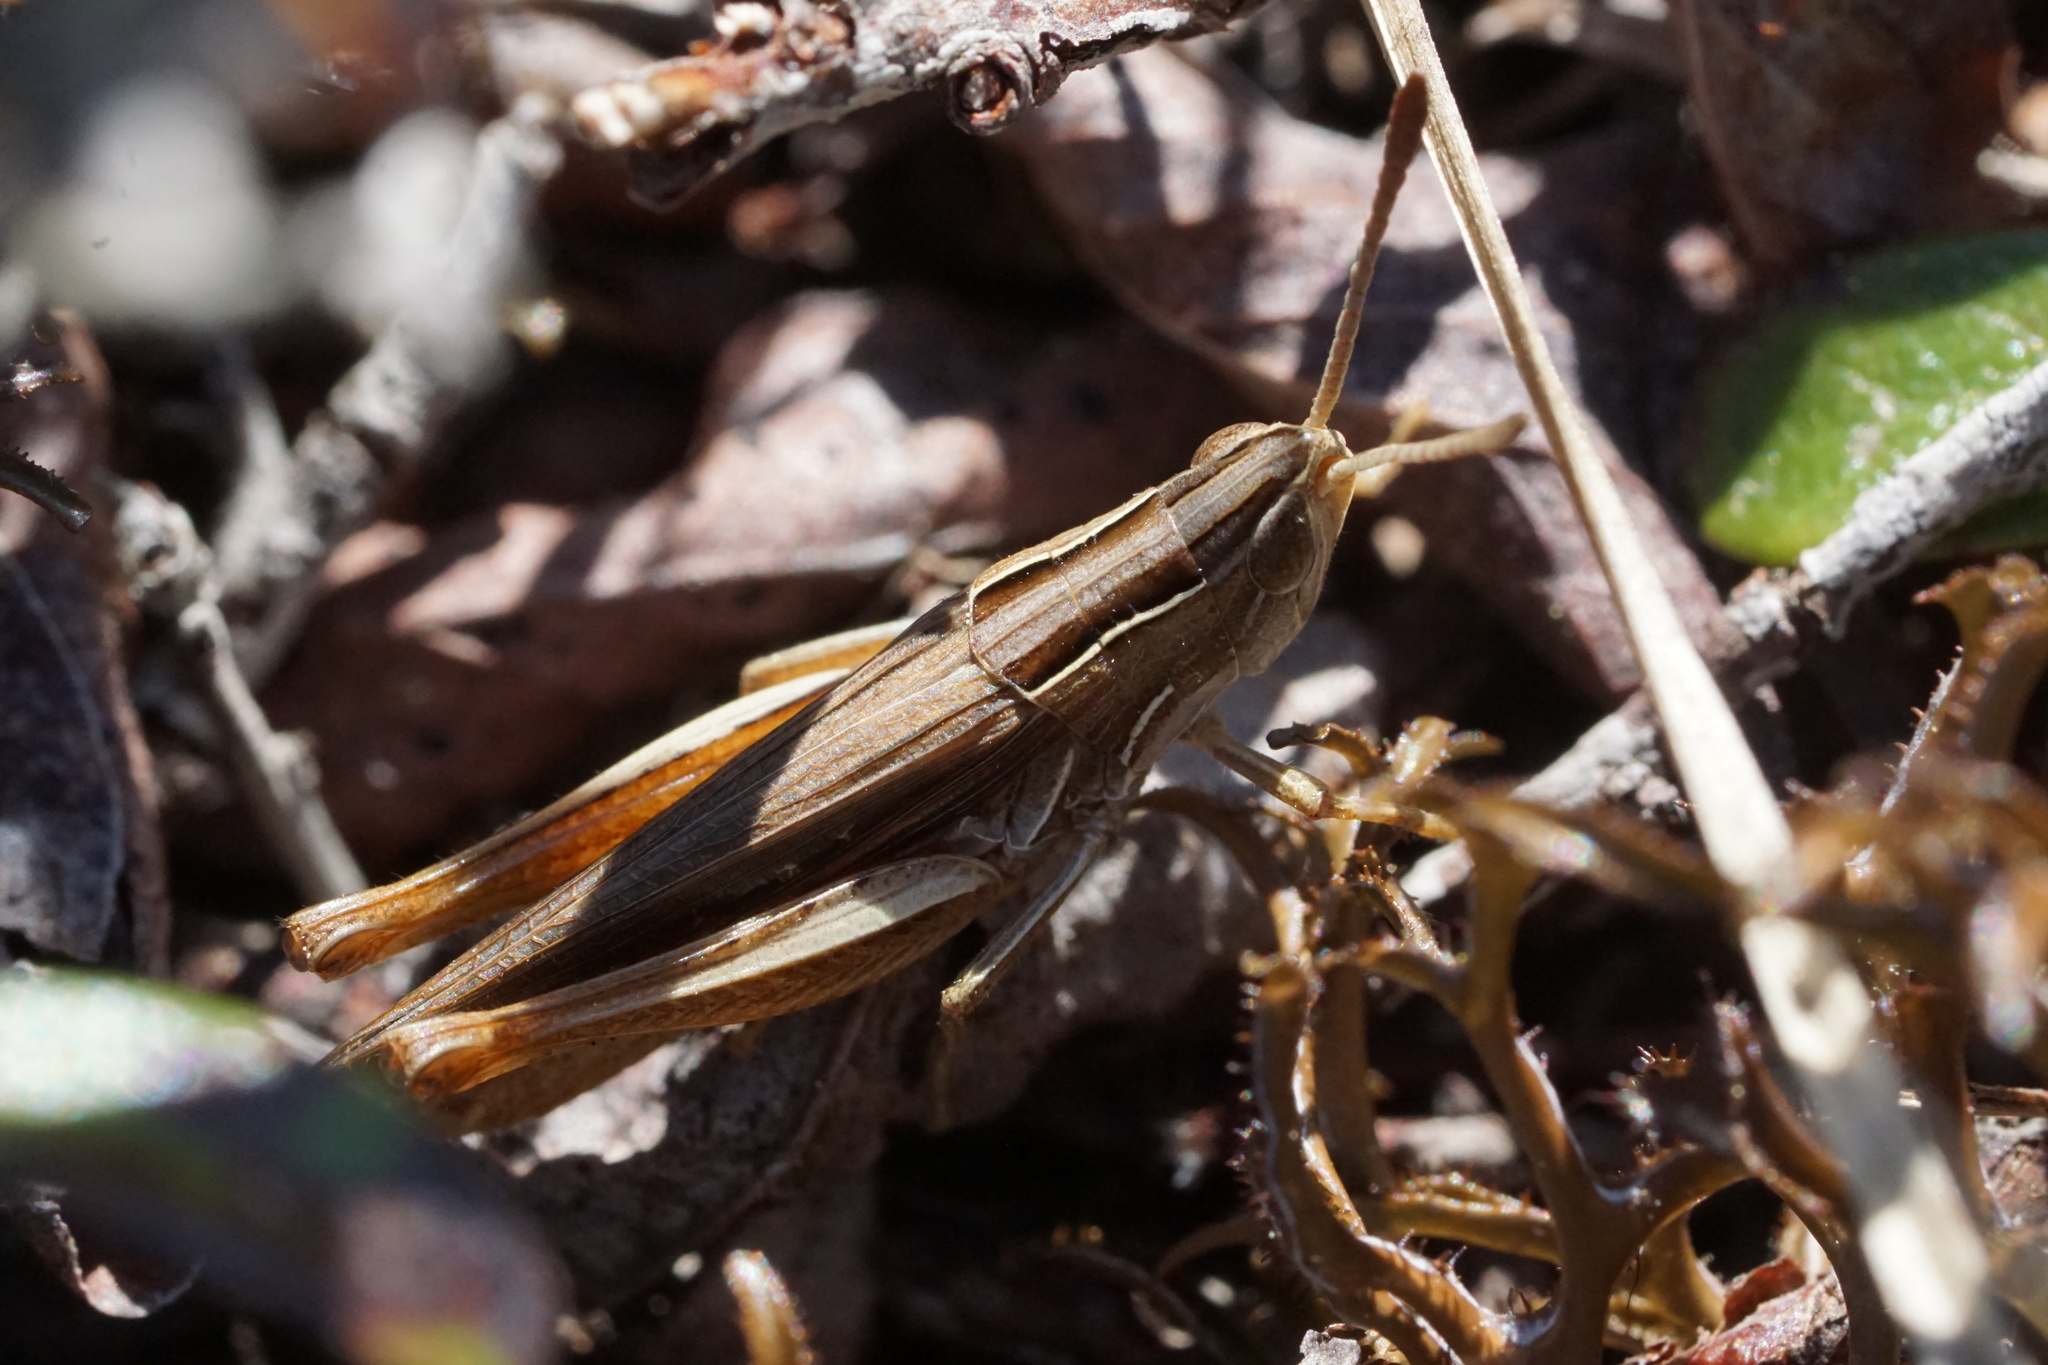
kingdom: Animalia
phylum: Arthropoda
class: Insecta
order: Orthoptera
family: Acrididae
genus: Eritettix
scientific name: Eritettix simplex
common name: Velvet-striped grasshopper
